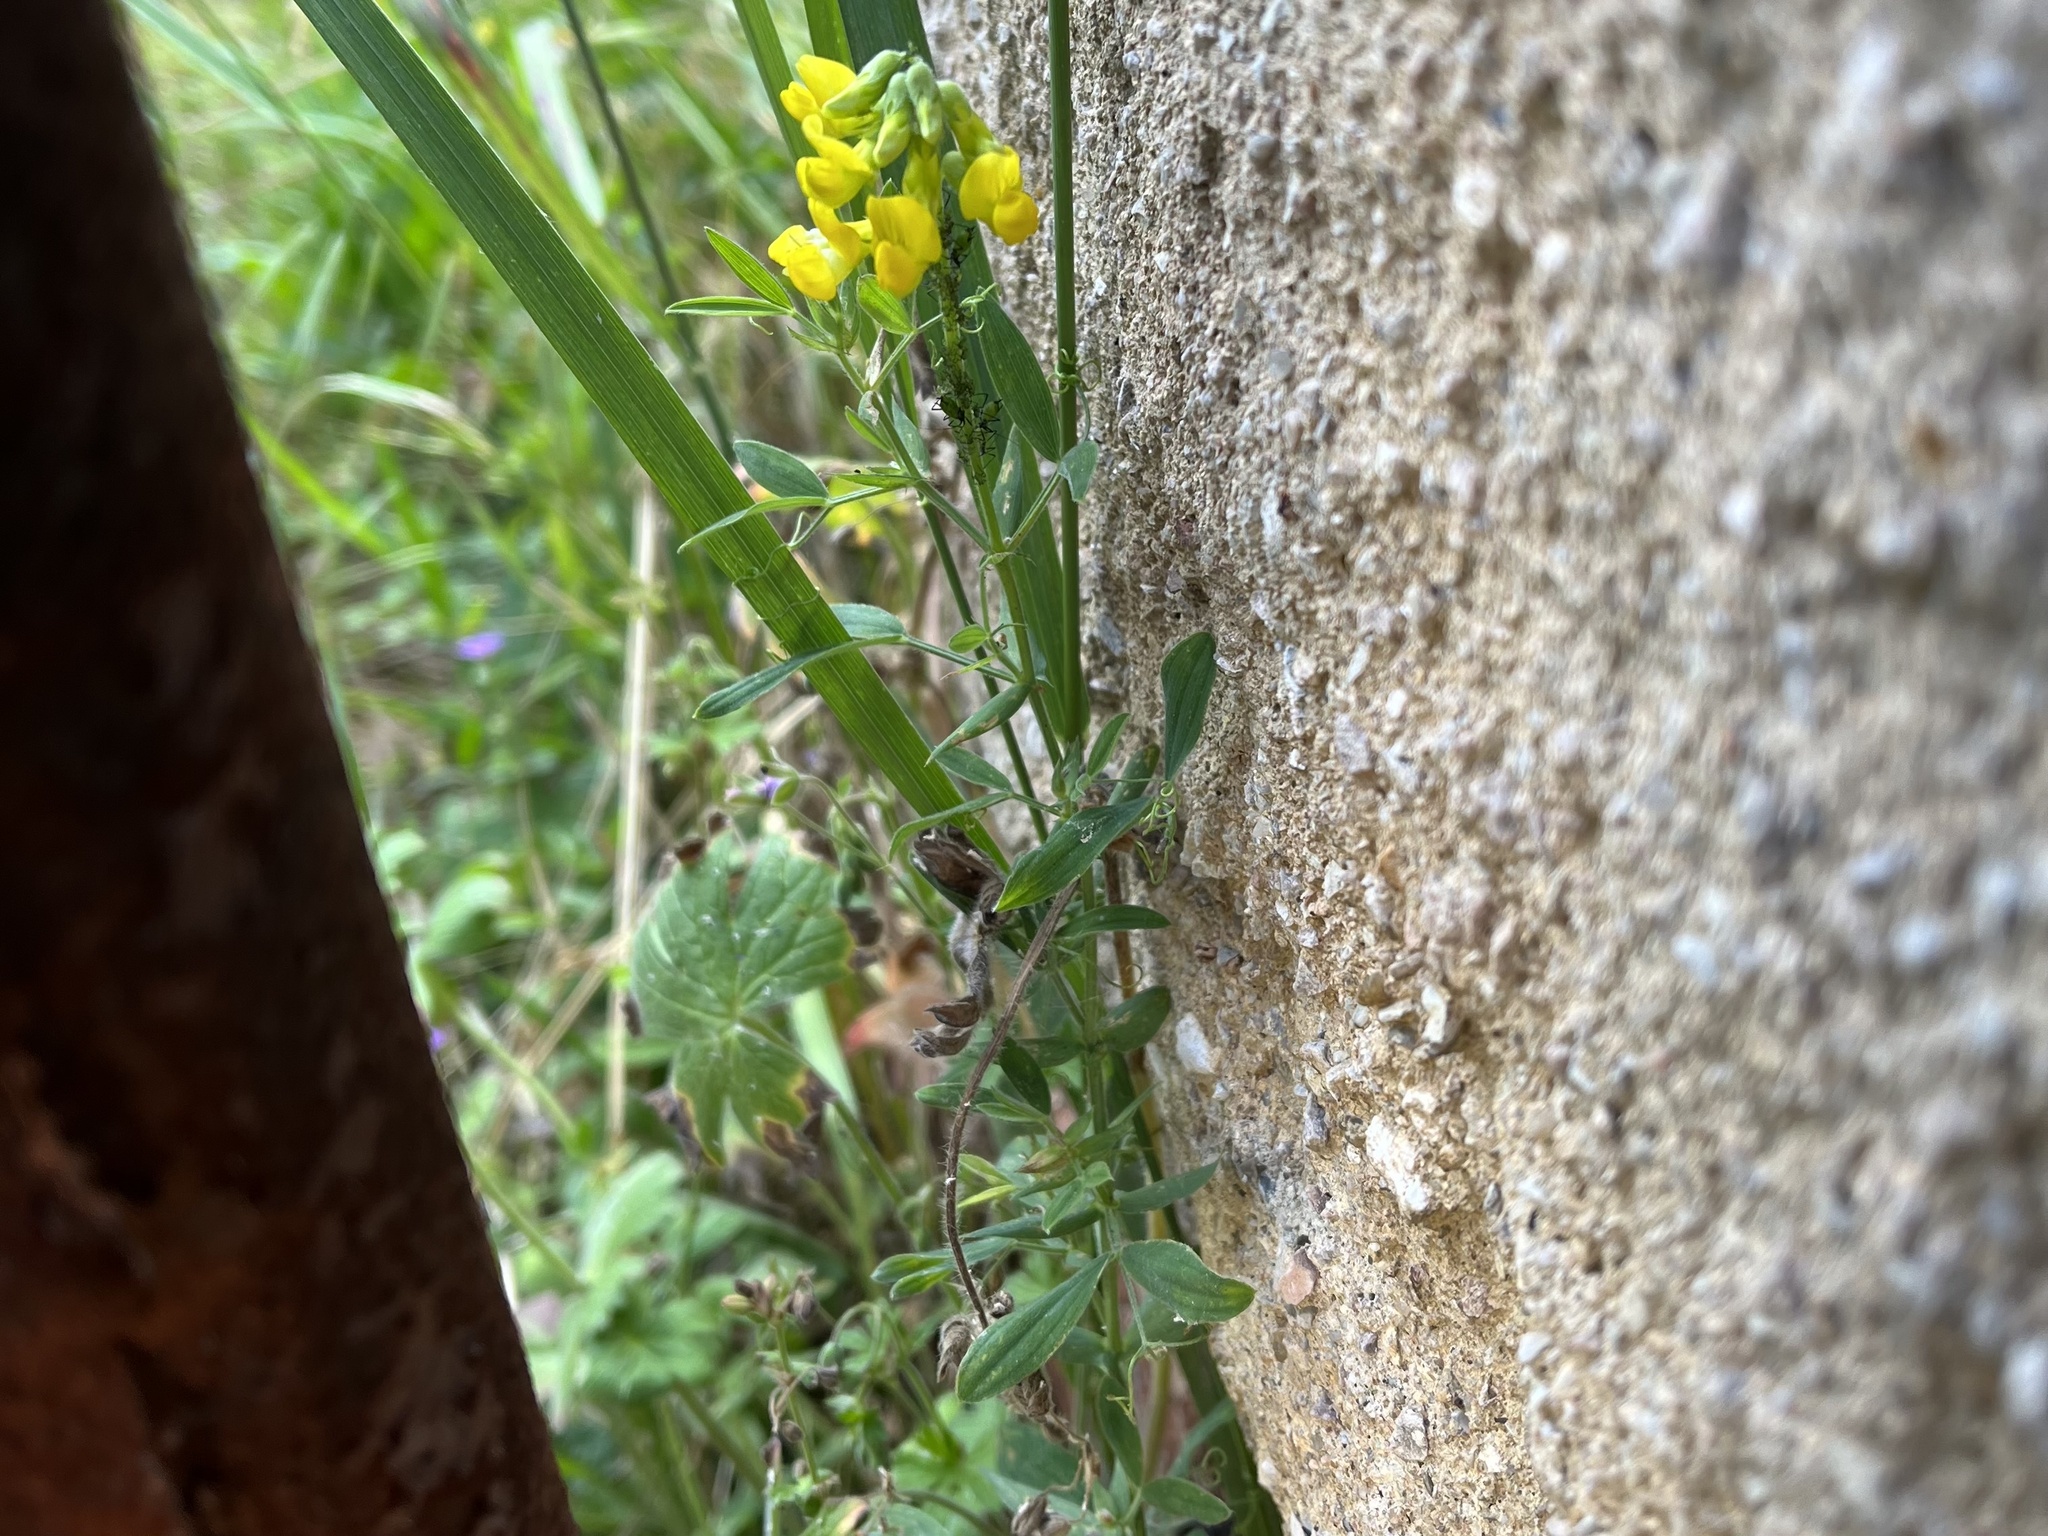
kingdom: Plantae
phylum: Tracheophyta
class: Magnoliopsida
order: Fabales
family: Fabaceae
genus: Lathyrus
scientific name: Lathyrus pratensis
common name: Meadow vetchling
